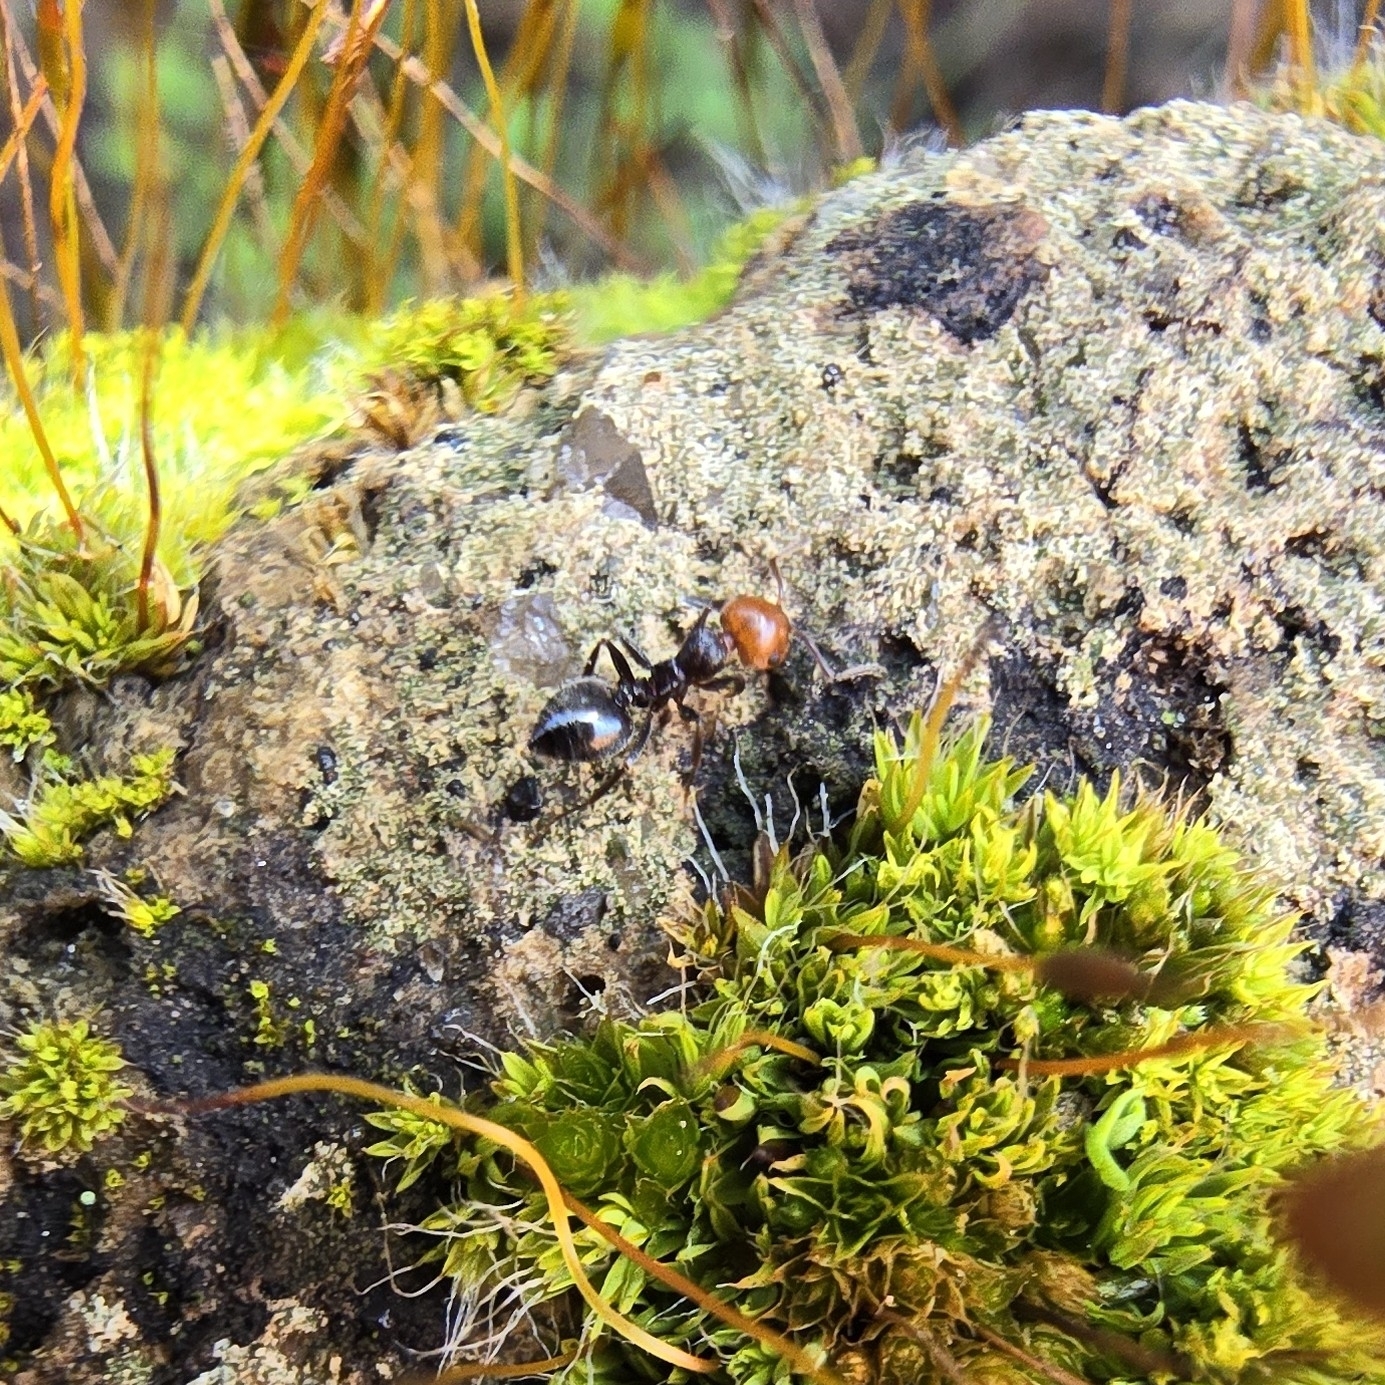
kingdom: Animalia
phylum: Arthropoda
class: Insecta
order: Hymenoptera
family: Formicidae
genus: Crematogaster
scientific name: Crematogaster scutellaris
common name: Fourmi du liège
